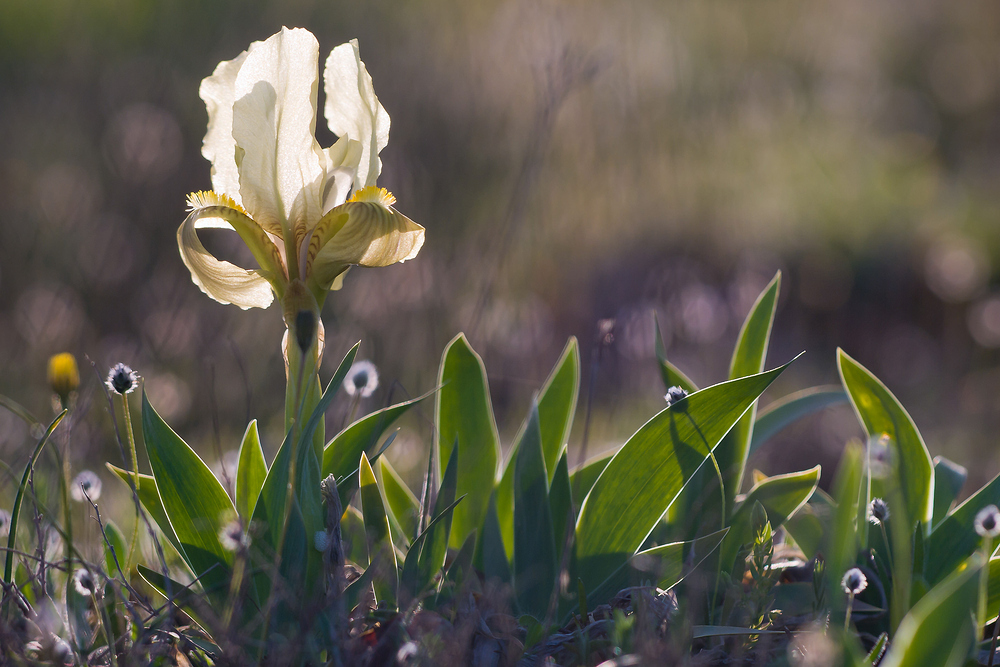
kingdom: Plantae
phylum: Tracheophyta
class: Liliopsida
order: Asparagales
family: Iridaceae
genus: Iris
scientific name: Iris lutescens
